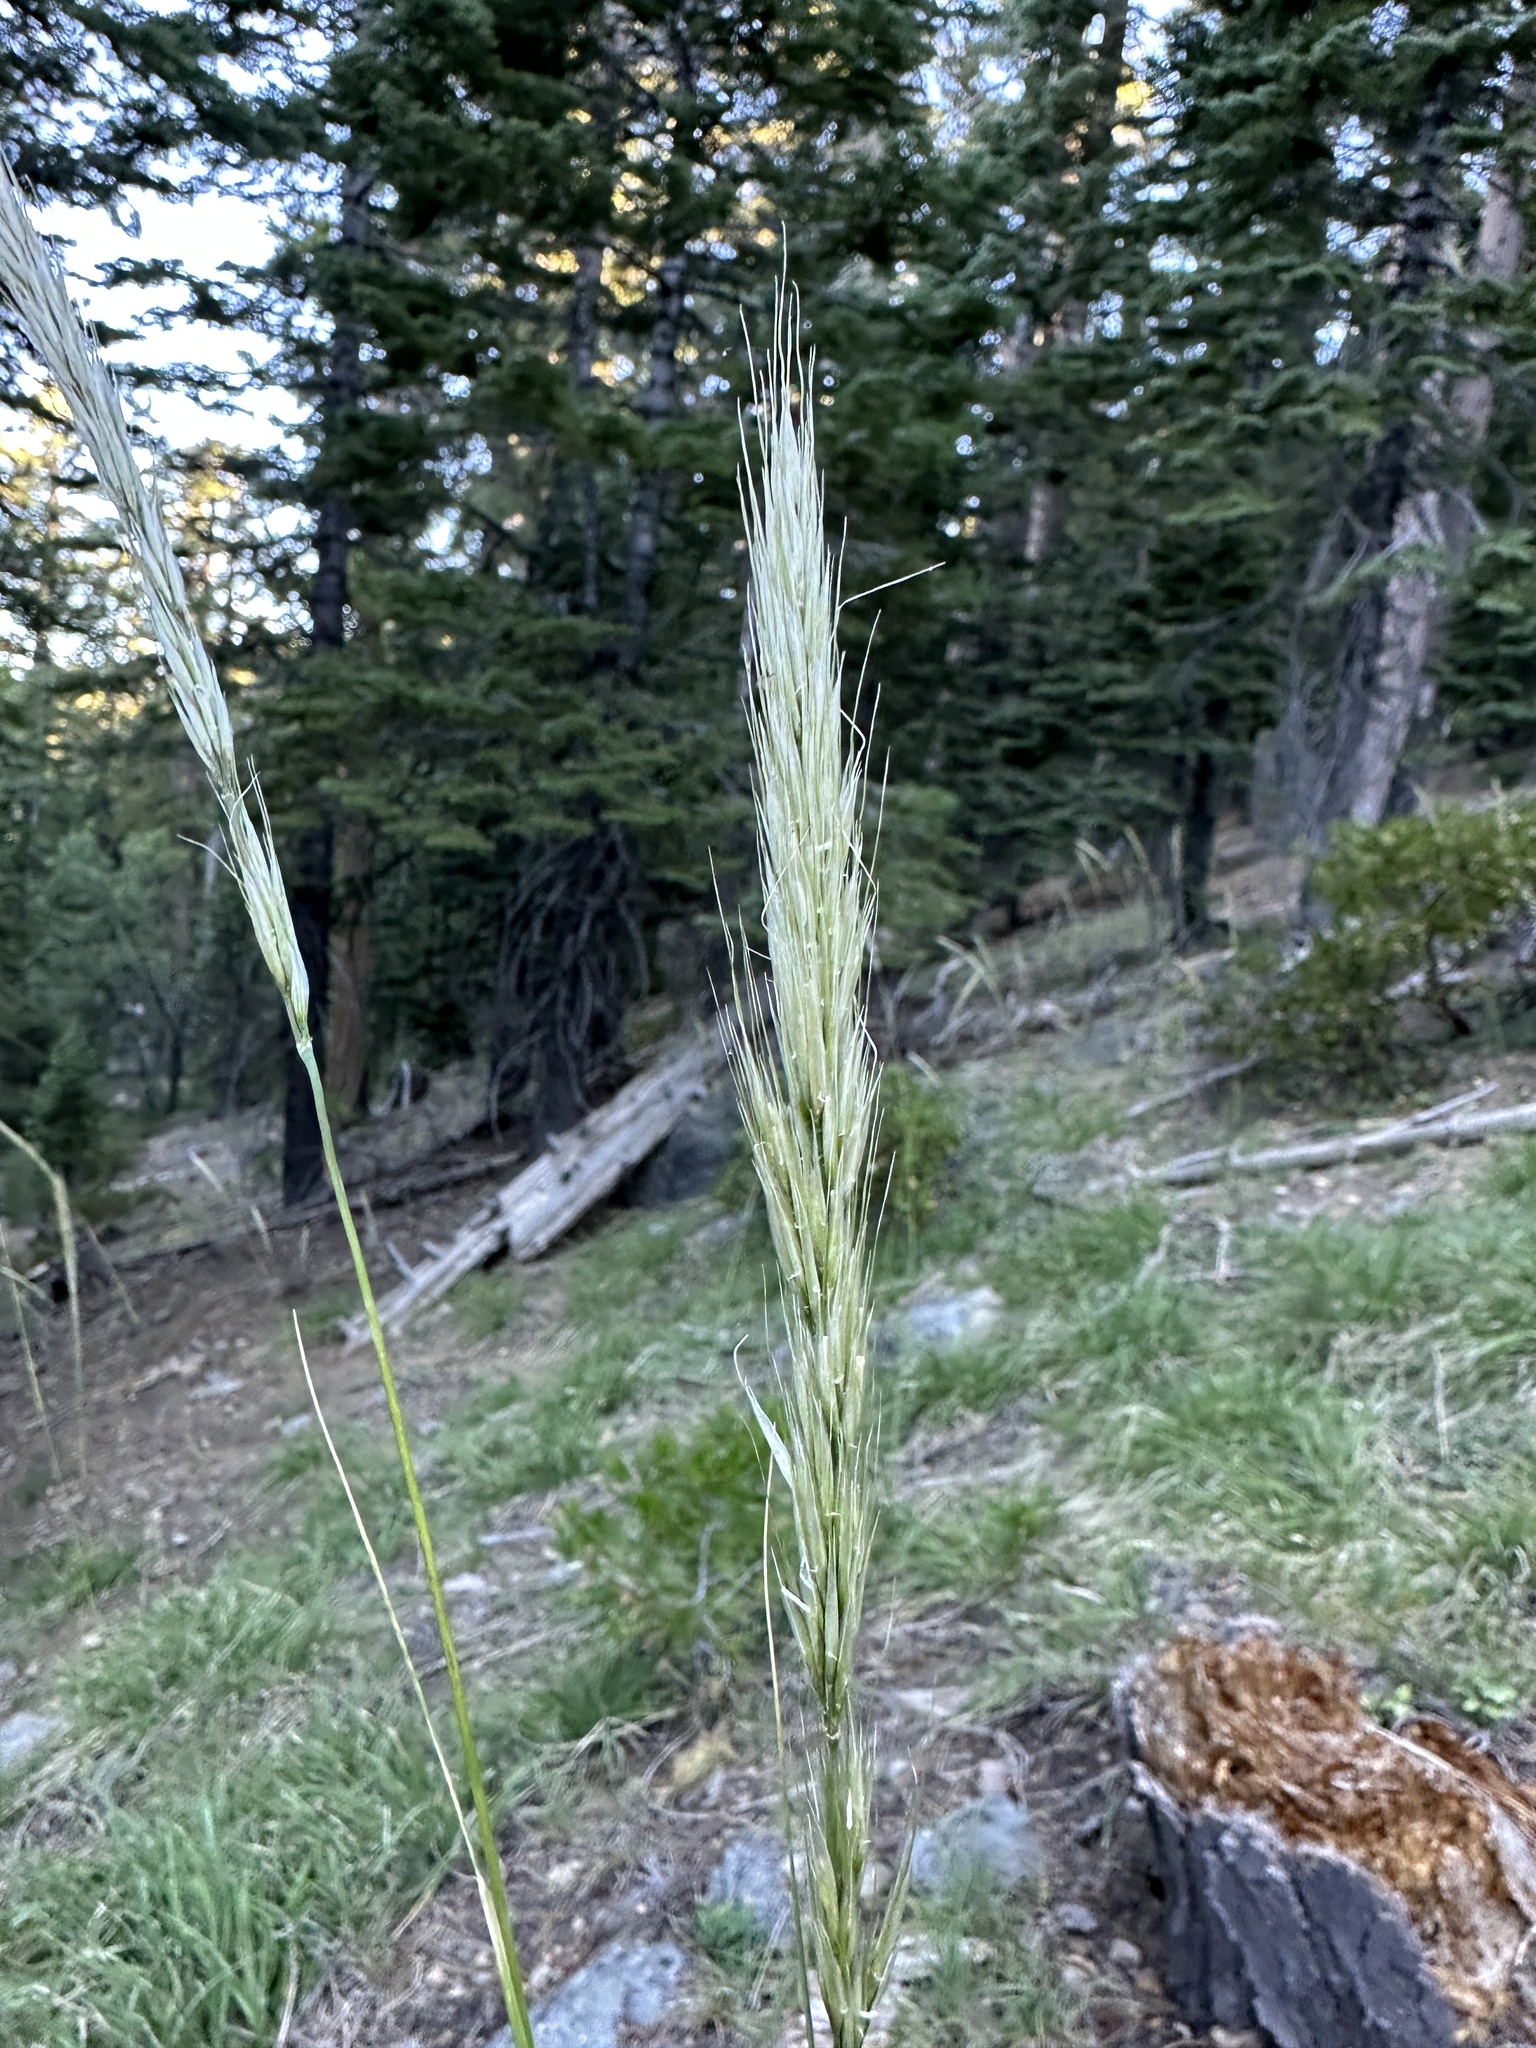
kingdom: Plantae
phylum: Tracheophyta
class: Liliopsida
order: Poales
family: Poaceae
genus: Barkworthia
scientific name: Barkworthia stillmanii
